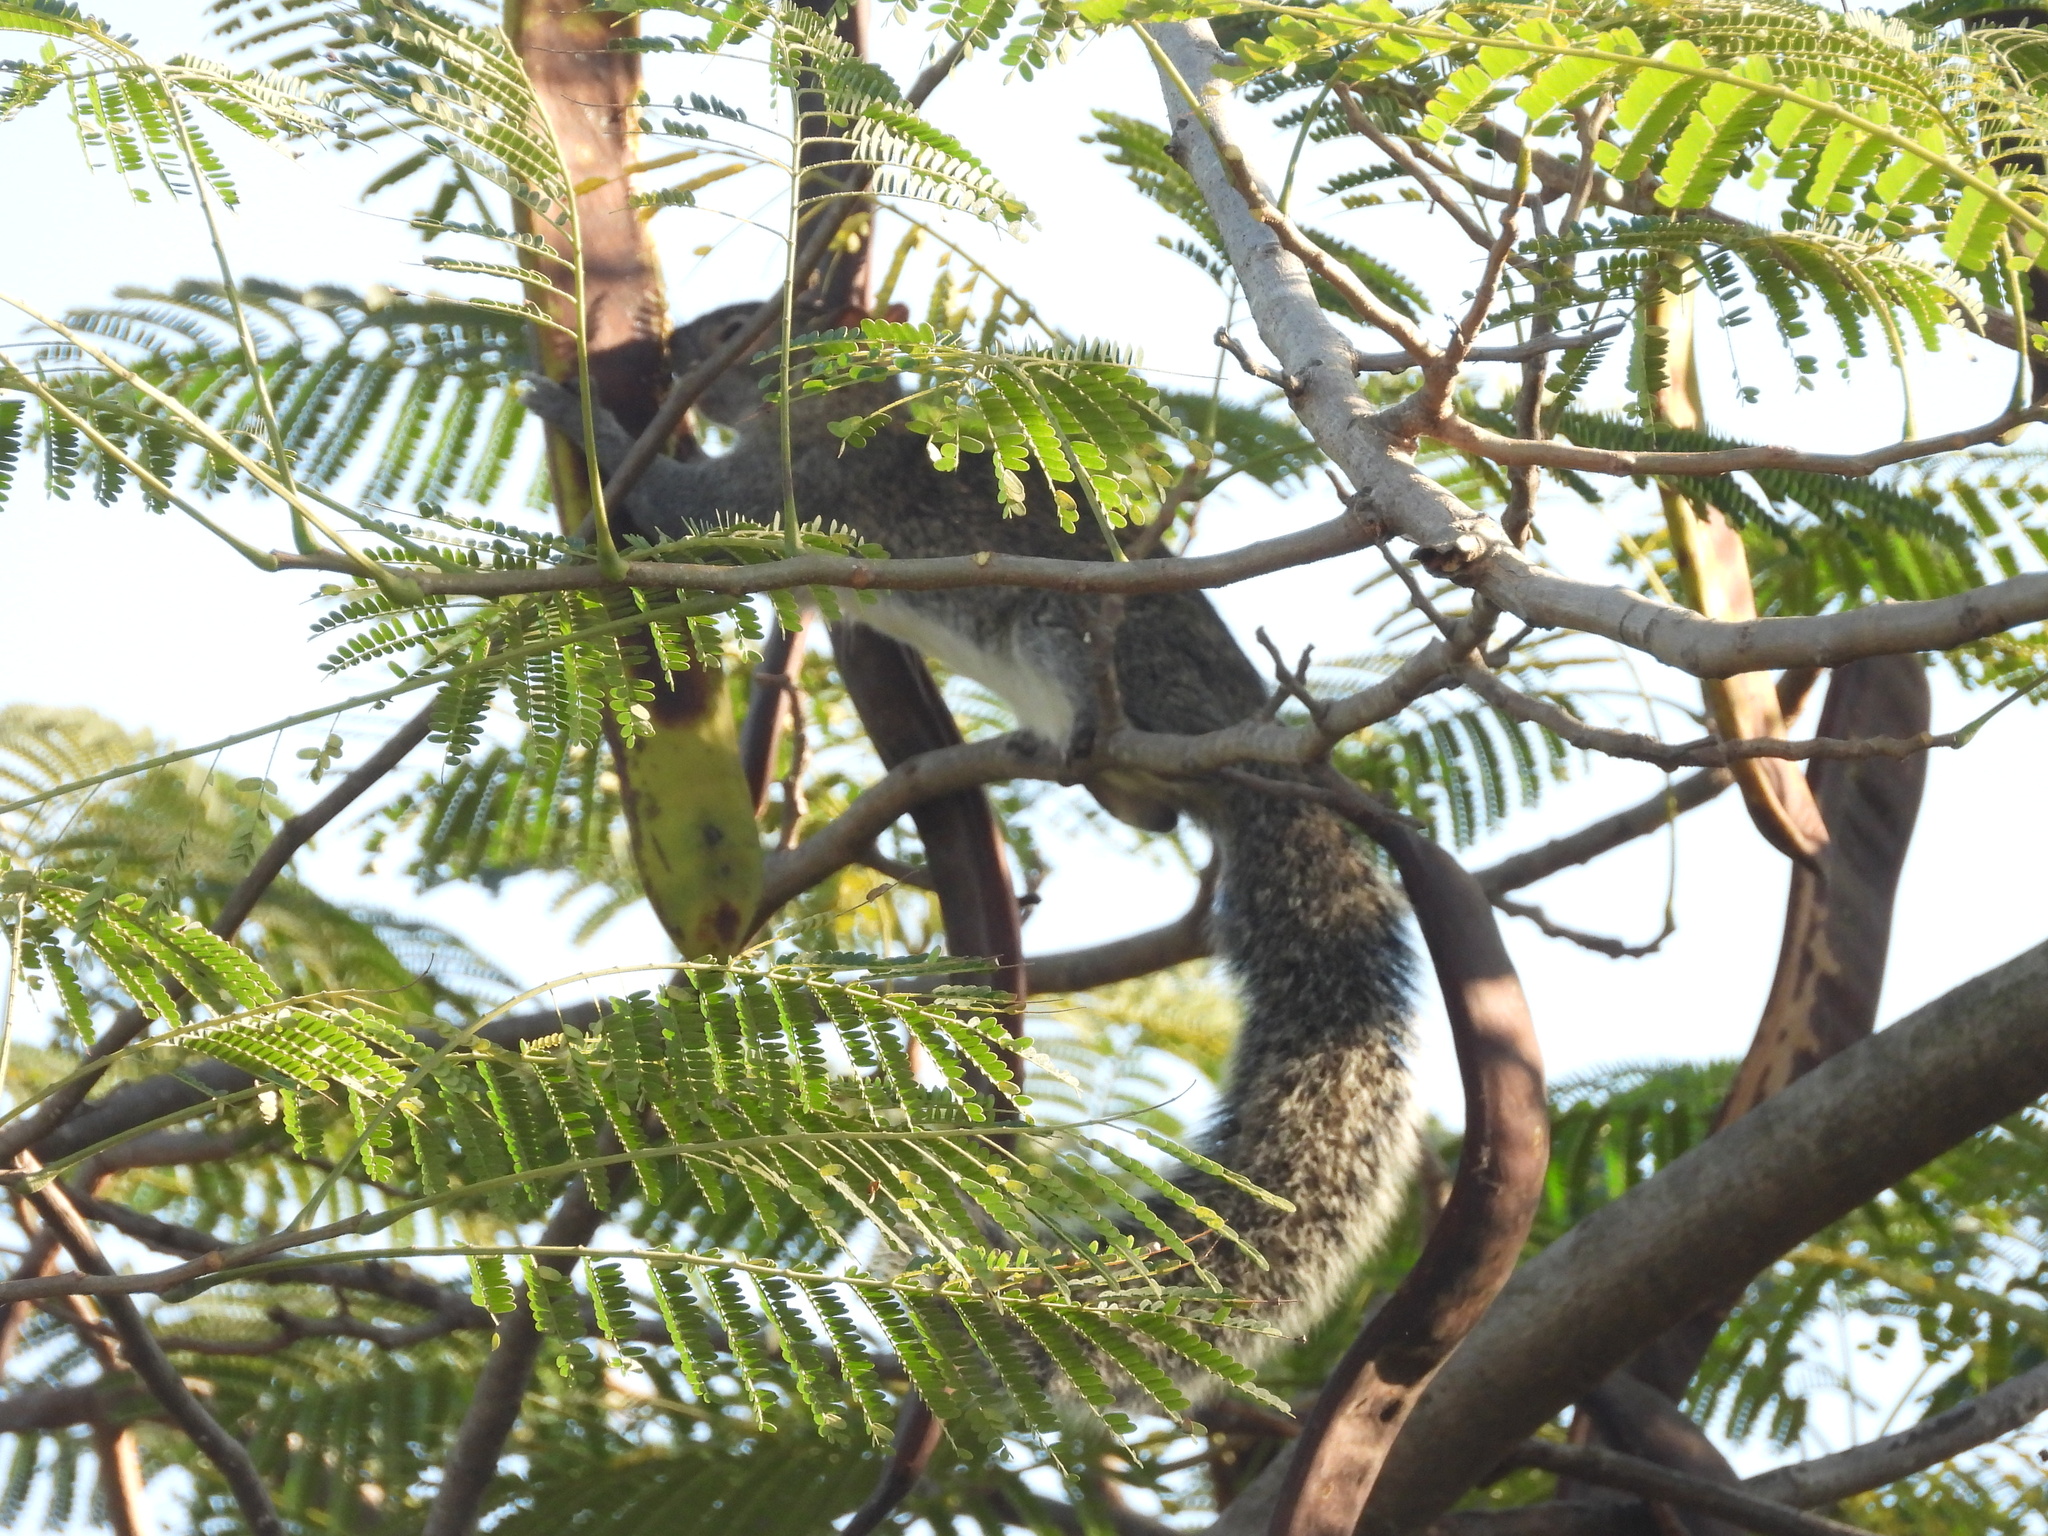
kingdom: Animalia
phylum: Chordata
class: Mammalia
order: Rodentia
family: Sciuridae
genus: Sciurus
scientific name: Sciurus colliaei
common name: Collie's squirrel
